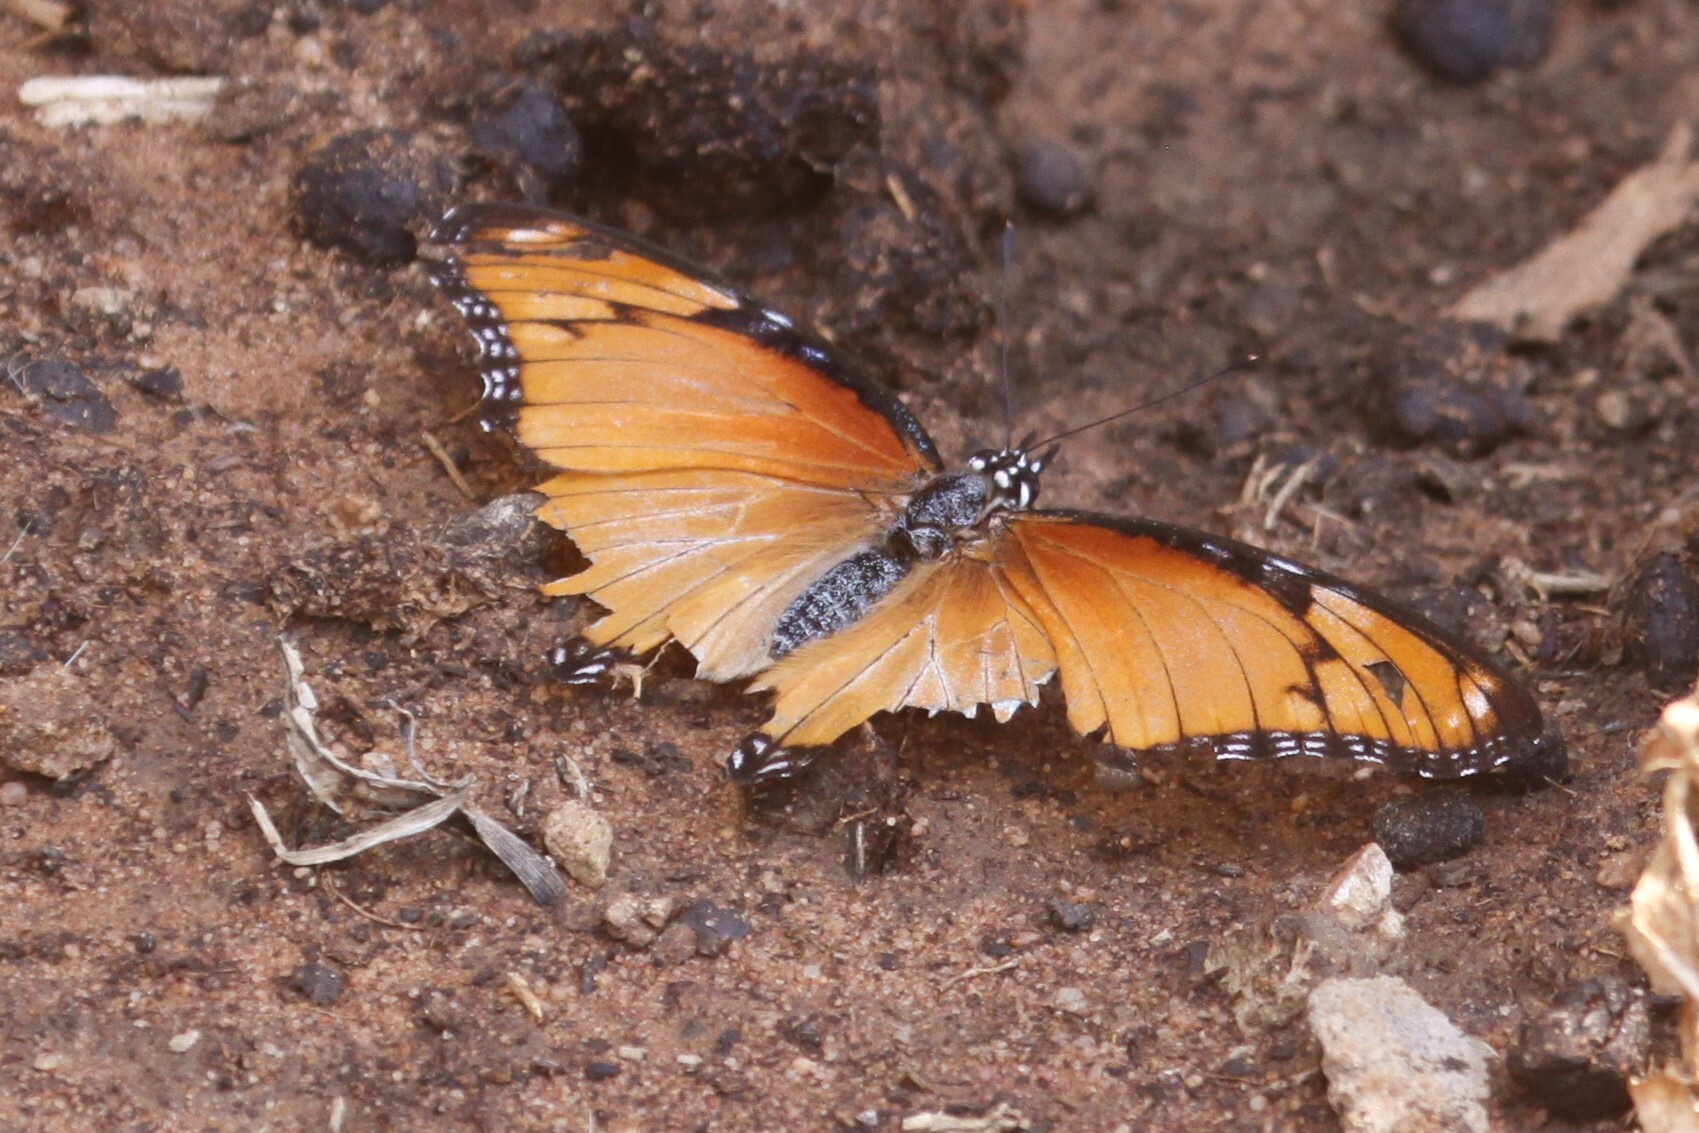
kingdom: Animalia
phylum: Arthropoda
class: Insecta
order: Lepidoptera
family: Nymphalidae
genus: Hypolimnas
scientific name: Hypolimnas misippus
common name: False plain tiger
